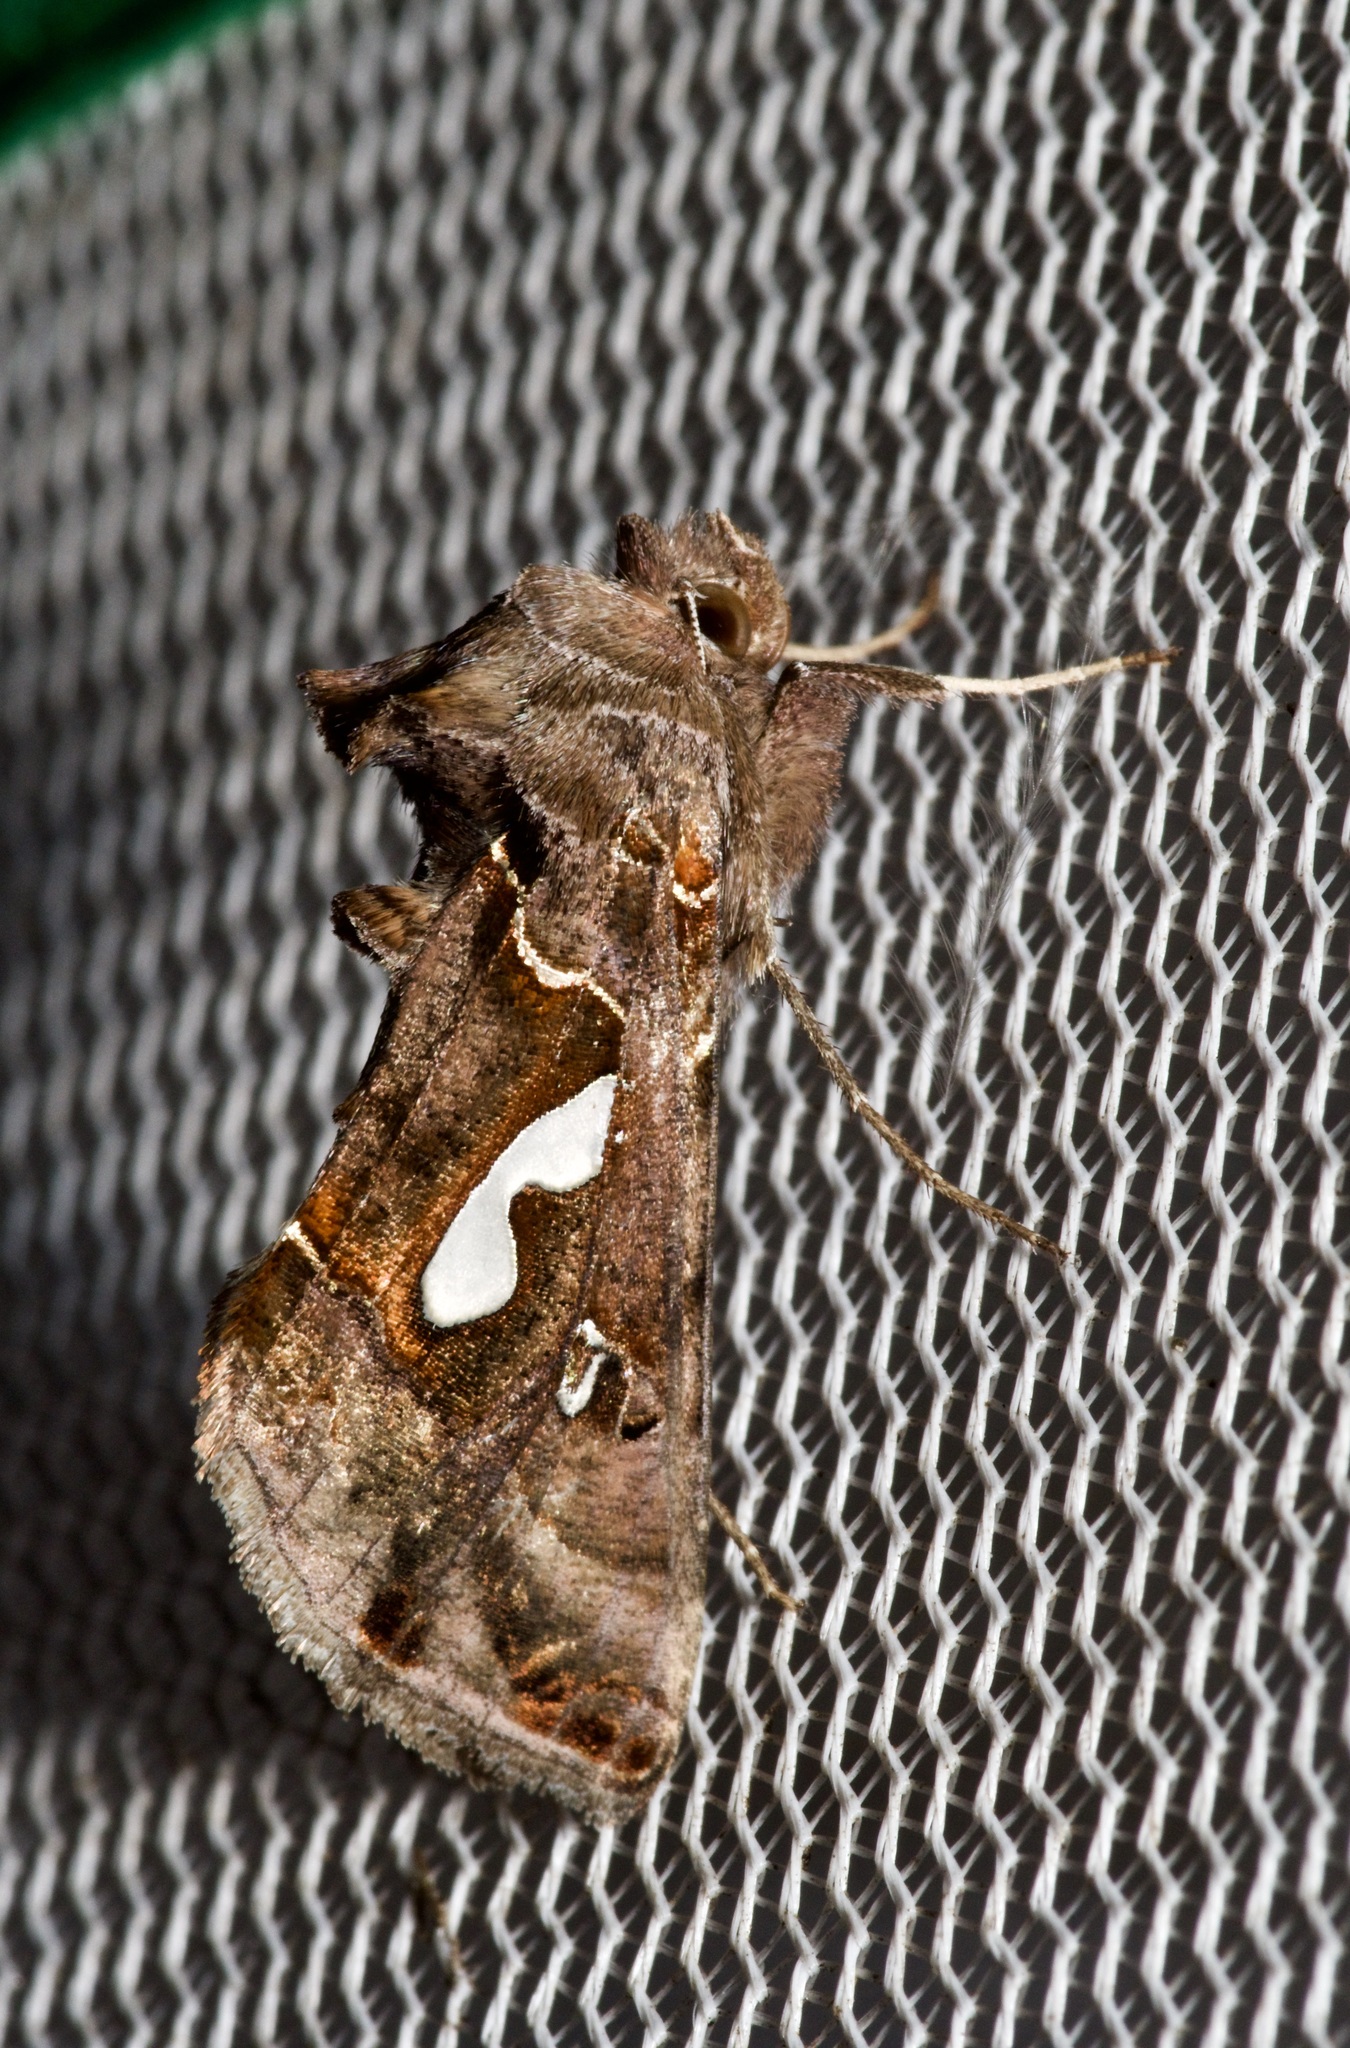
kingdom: Animalia
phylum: Arthropoda
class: Insecta
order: Lepidoptera
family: Noctuidae
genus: Megalographa
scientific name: Megalographa biloba
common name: Cutworm
